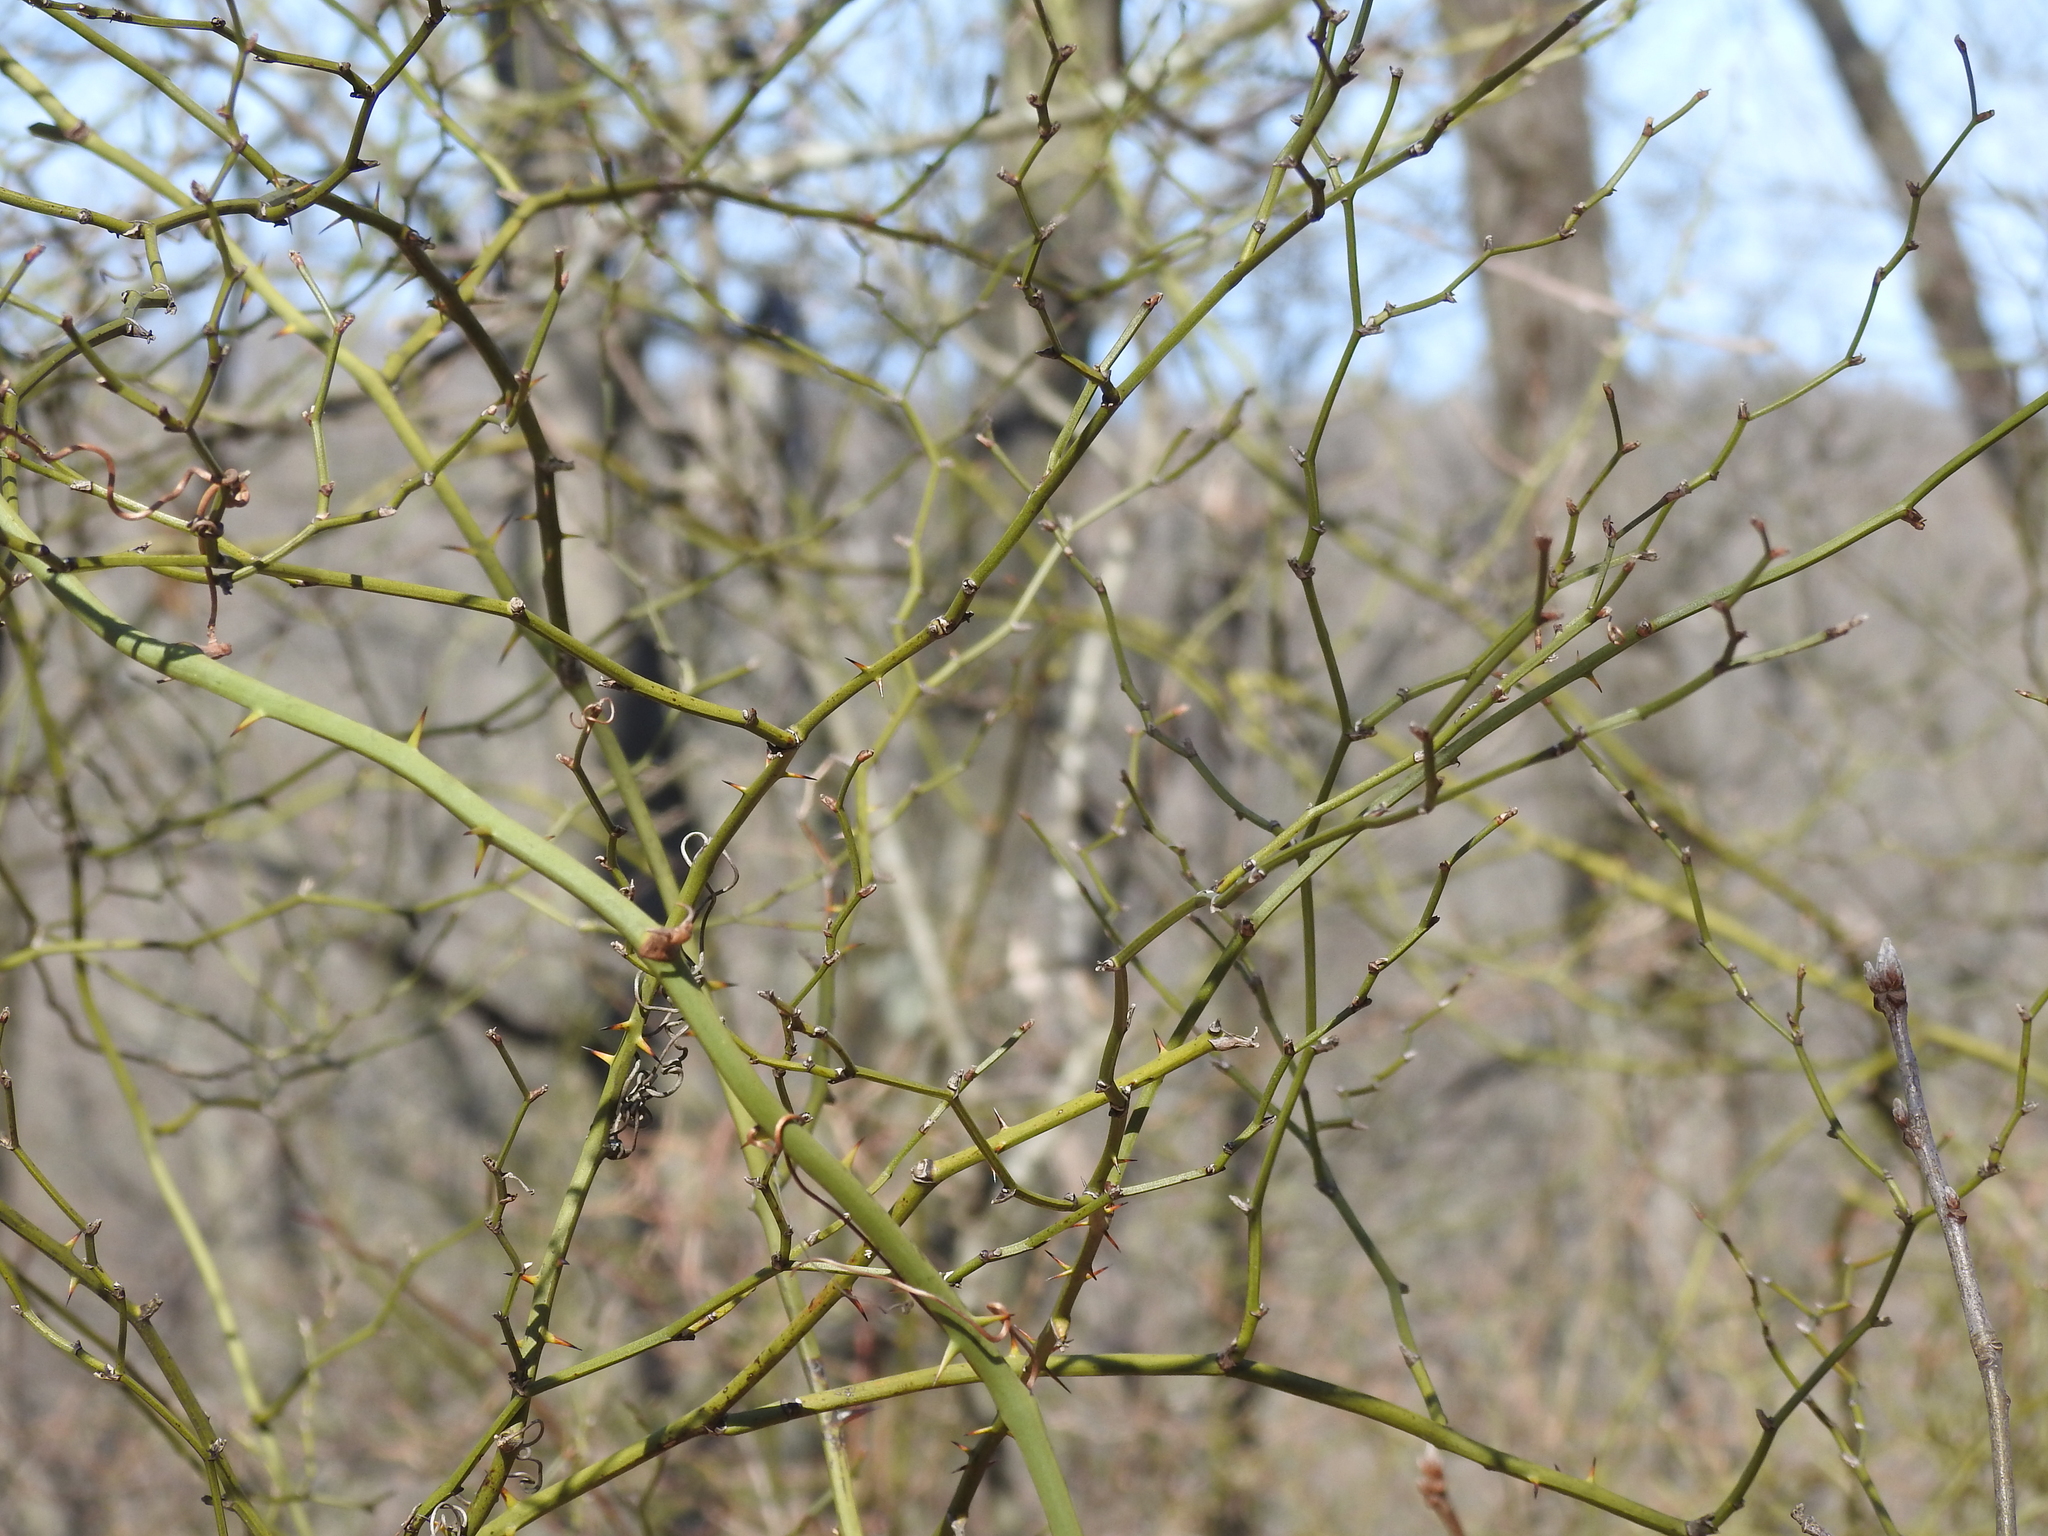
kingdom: Plantae
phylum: Tracheophyta
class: Liliopsida
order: Liliales
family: Smilacaceae
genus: Smilax
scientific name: Smilax rotundifolia
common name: Bullbriar
